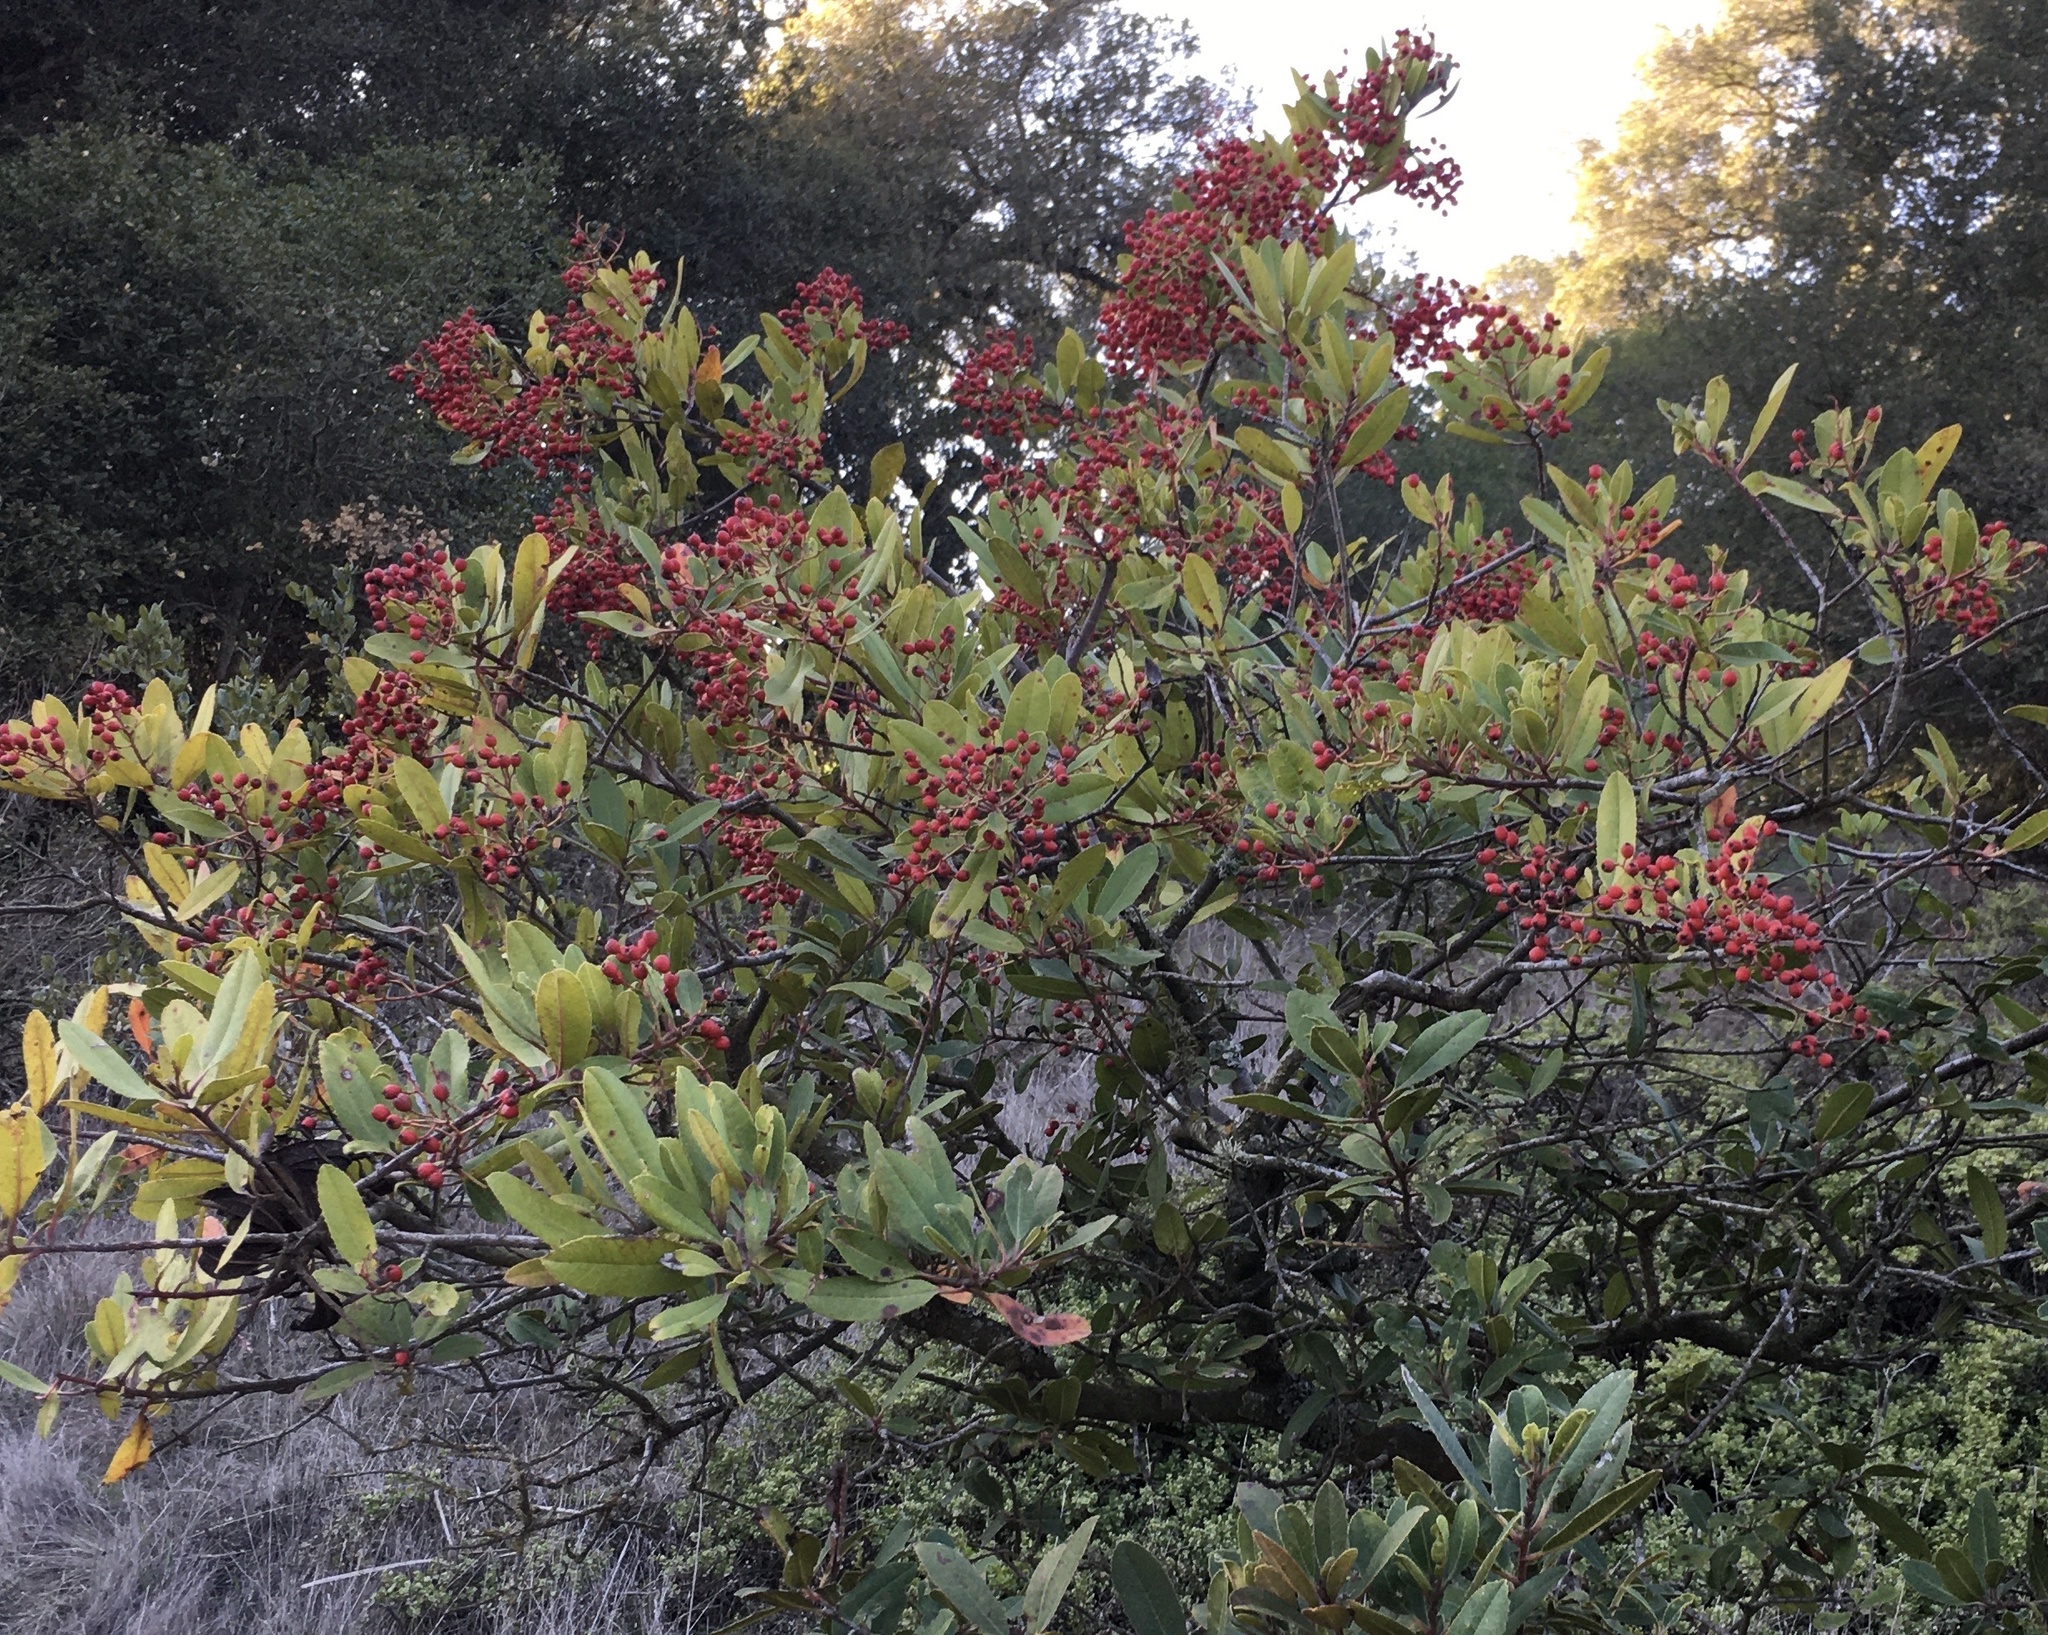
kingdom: Plantae
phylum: Tracheophyta
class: Magnoliopsida
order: Rosales
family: Rosaceae
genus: Heteromeles
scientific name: Heteromeles arbutifolia
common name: California-holly
